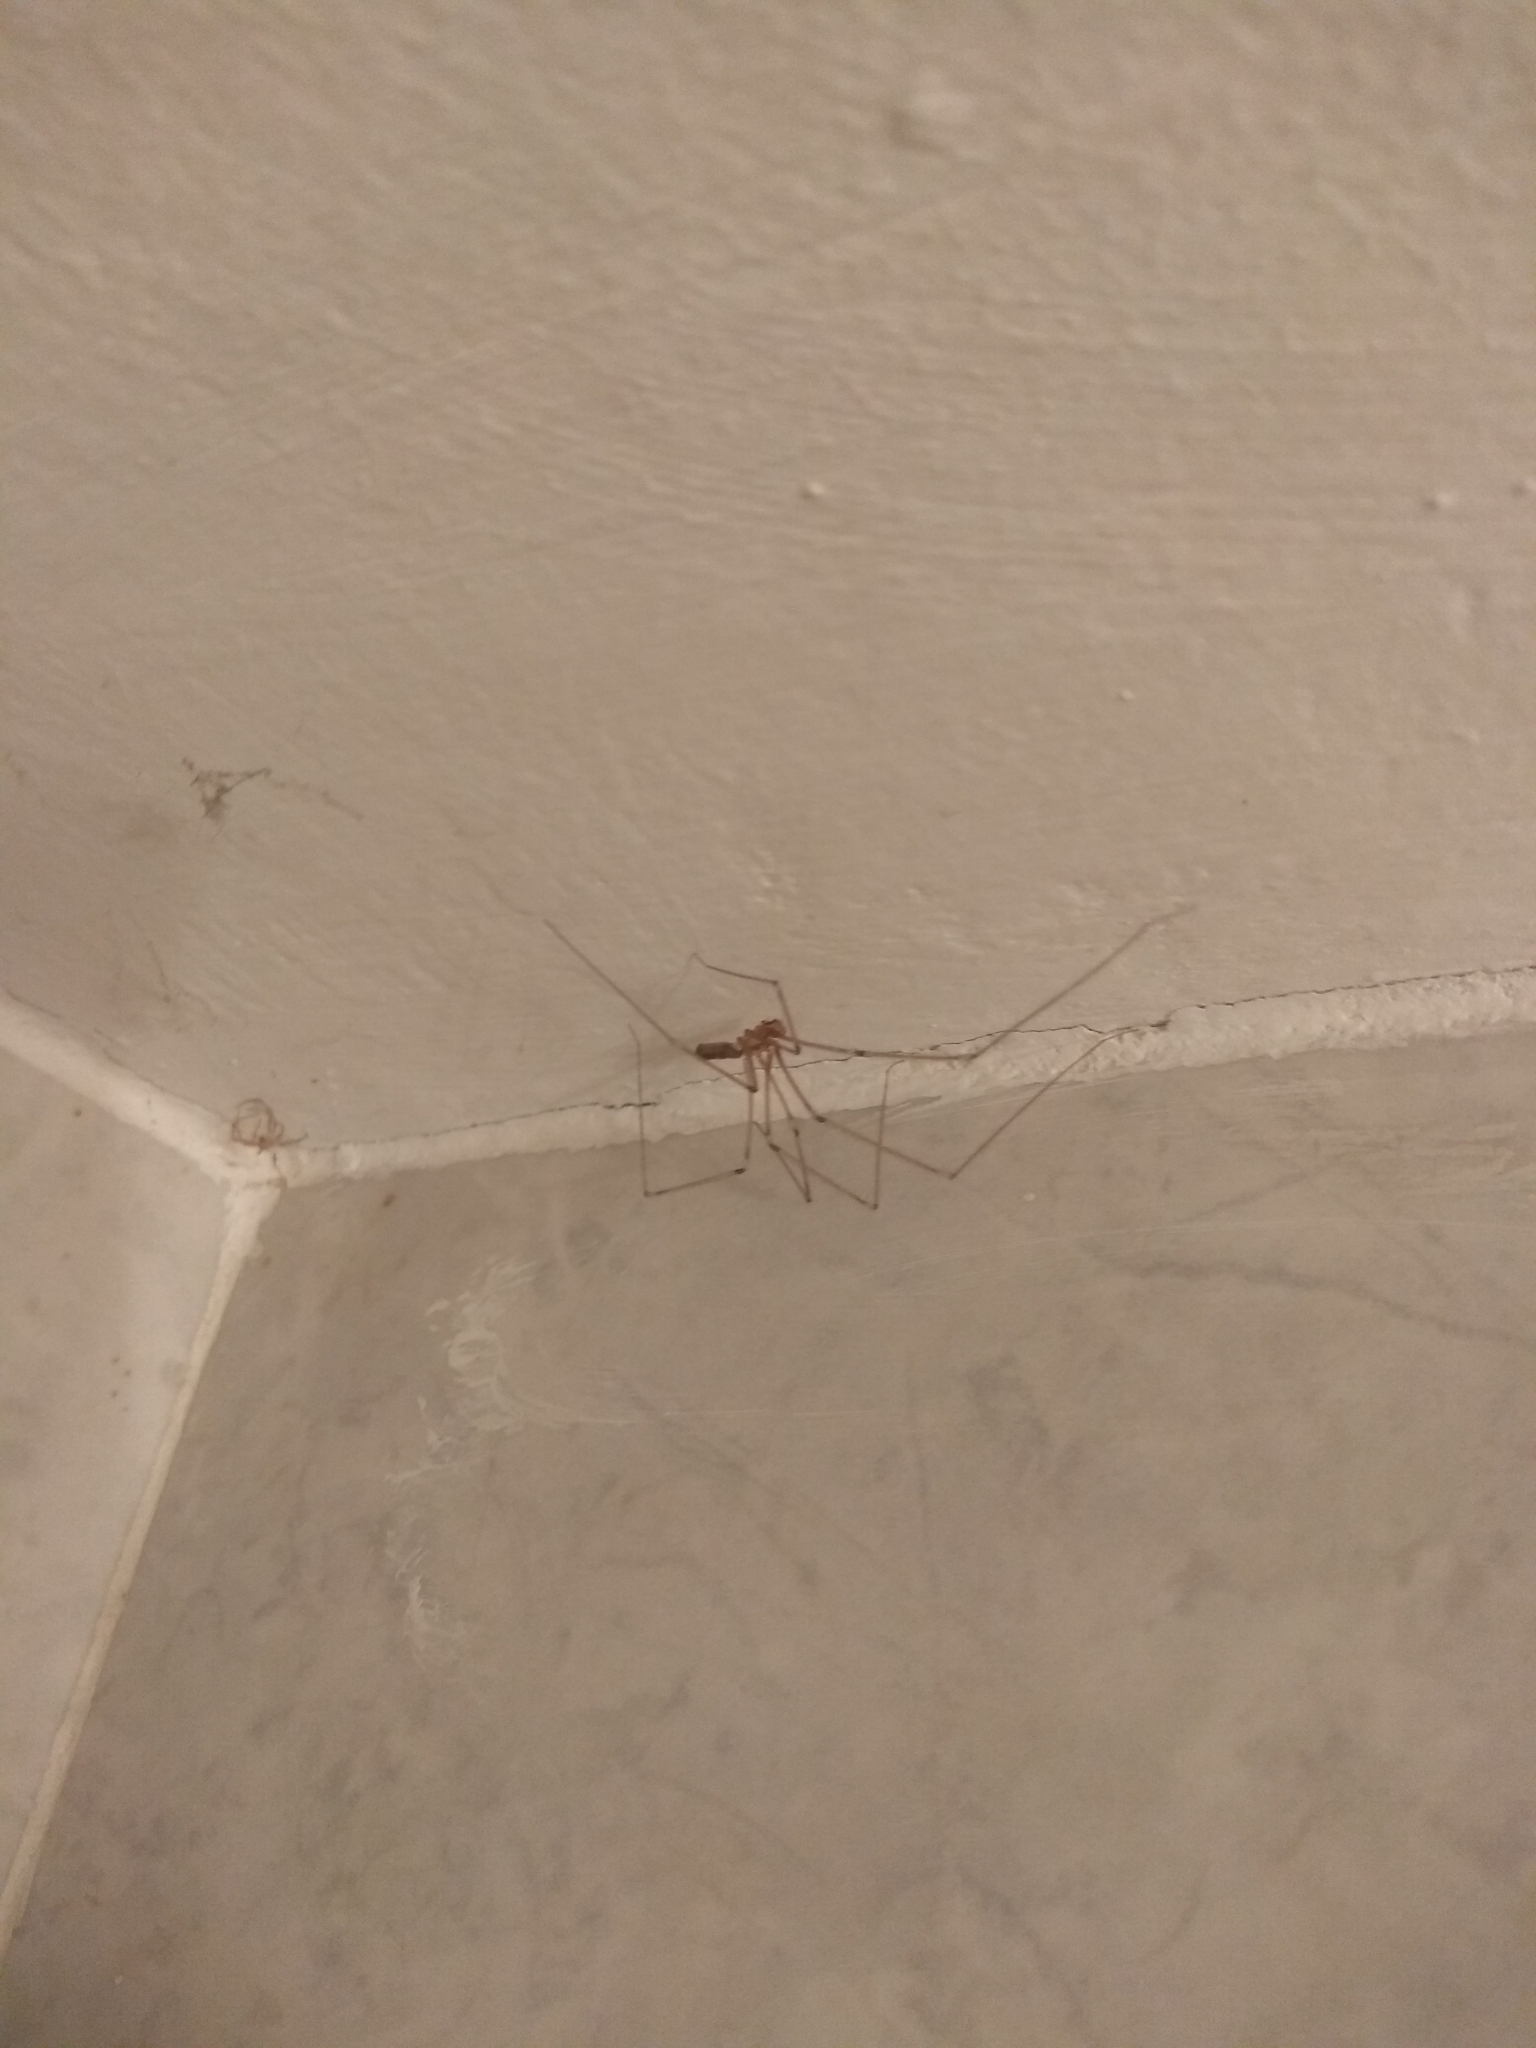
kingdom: Animalia
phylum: Arthropoda
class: Arachnida
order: Araneae
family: Pholcidae
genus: Pholcus
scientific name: Pholcus phalangioides
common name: Longbodied cellar spider
